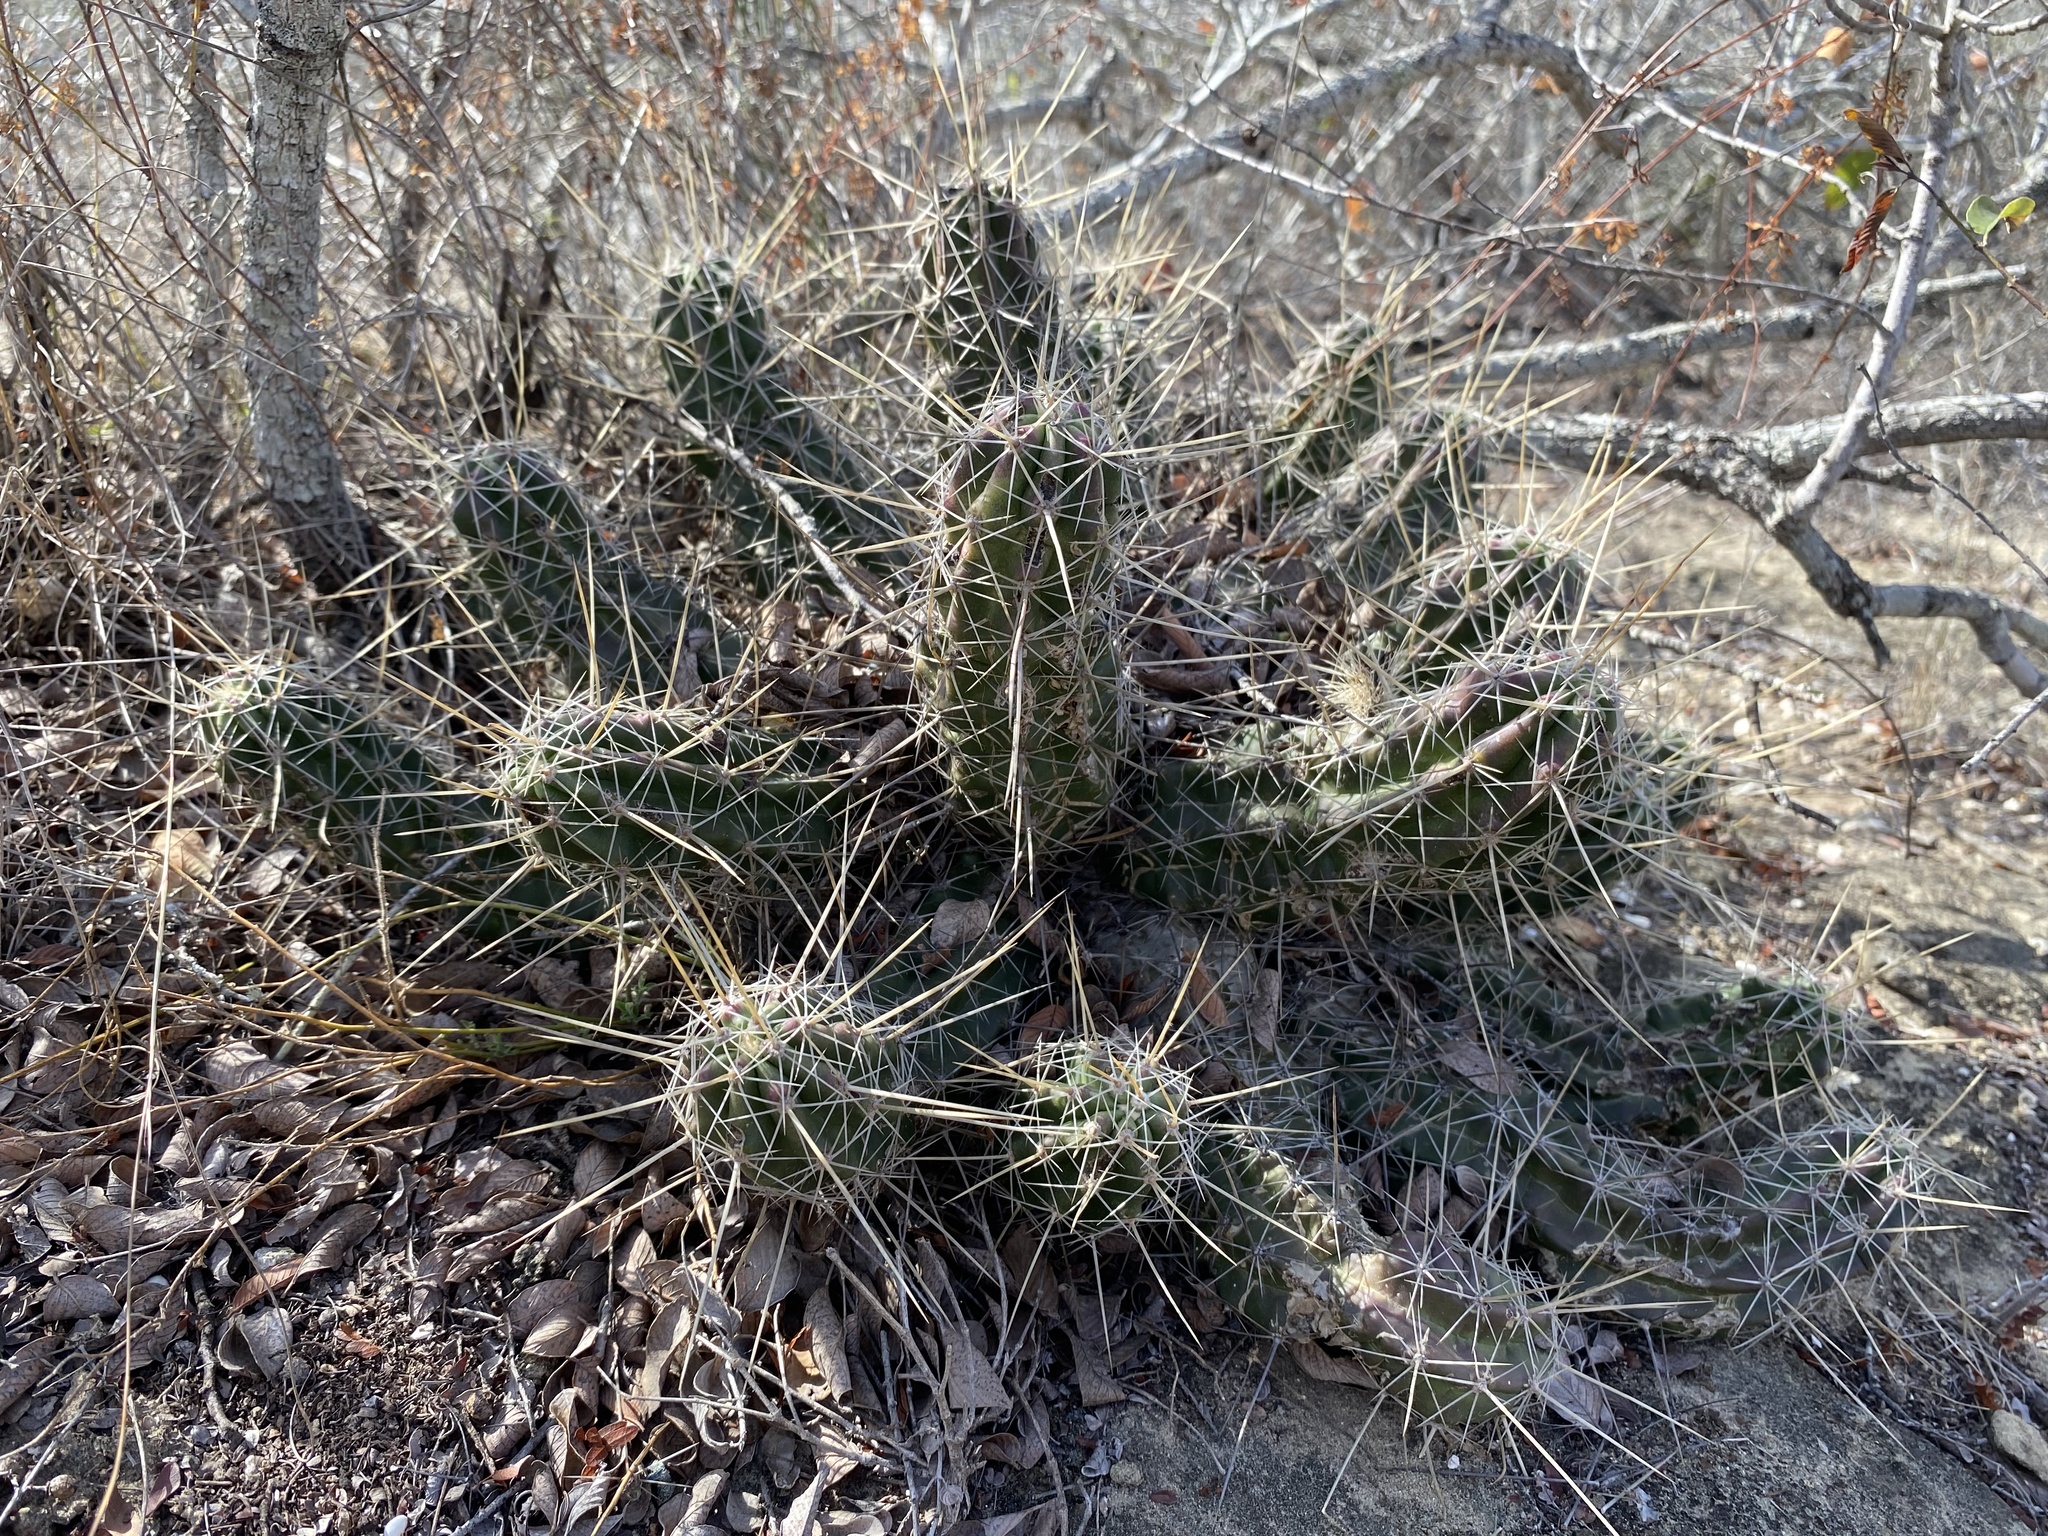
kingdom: Plantae
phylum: Tracheophyta
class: Magnoliopsida
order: Caryophyllales
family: Cactaceae
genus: Echinocereus
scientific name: Echinocereus enneacanthus
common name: Pitaya
